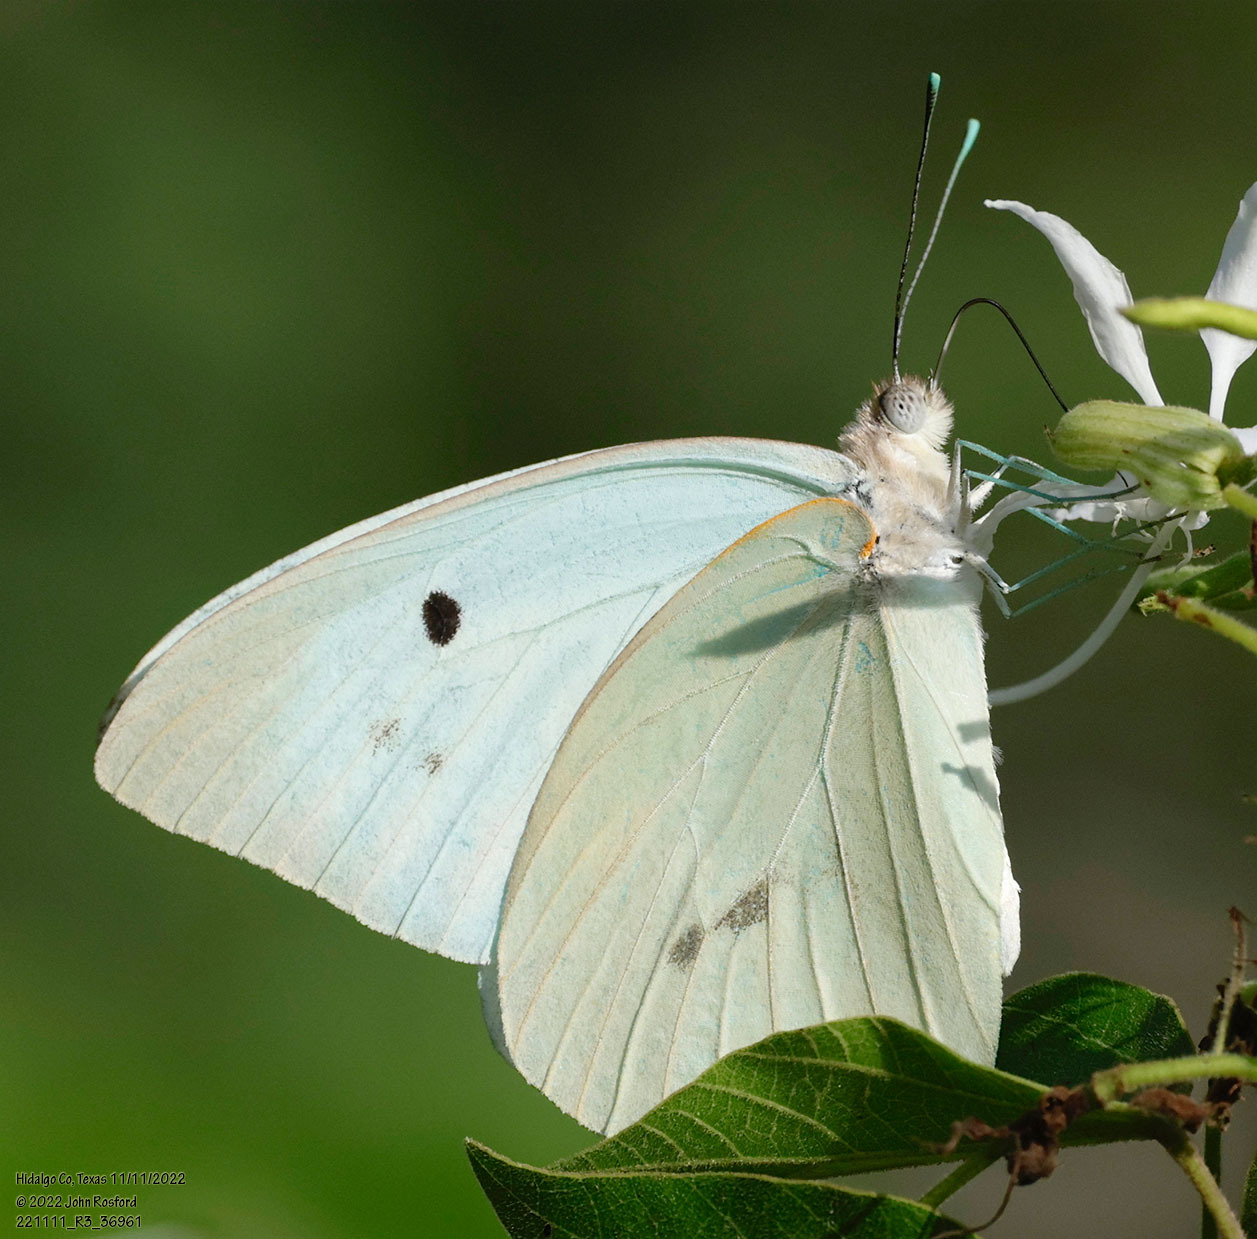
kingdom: Animalia
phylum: Arthropoda
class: Insecta
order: Lepidoptera
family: Pieridae
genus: Ganyra
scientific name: Ganyra josephina
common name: Giant white
